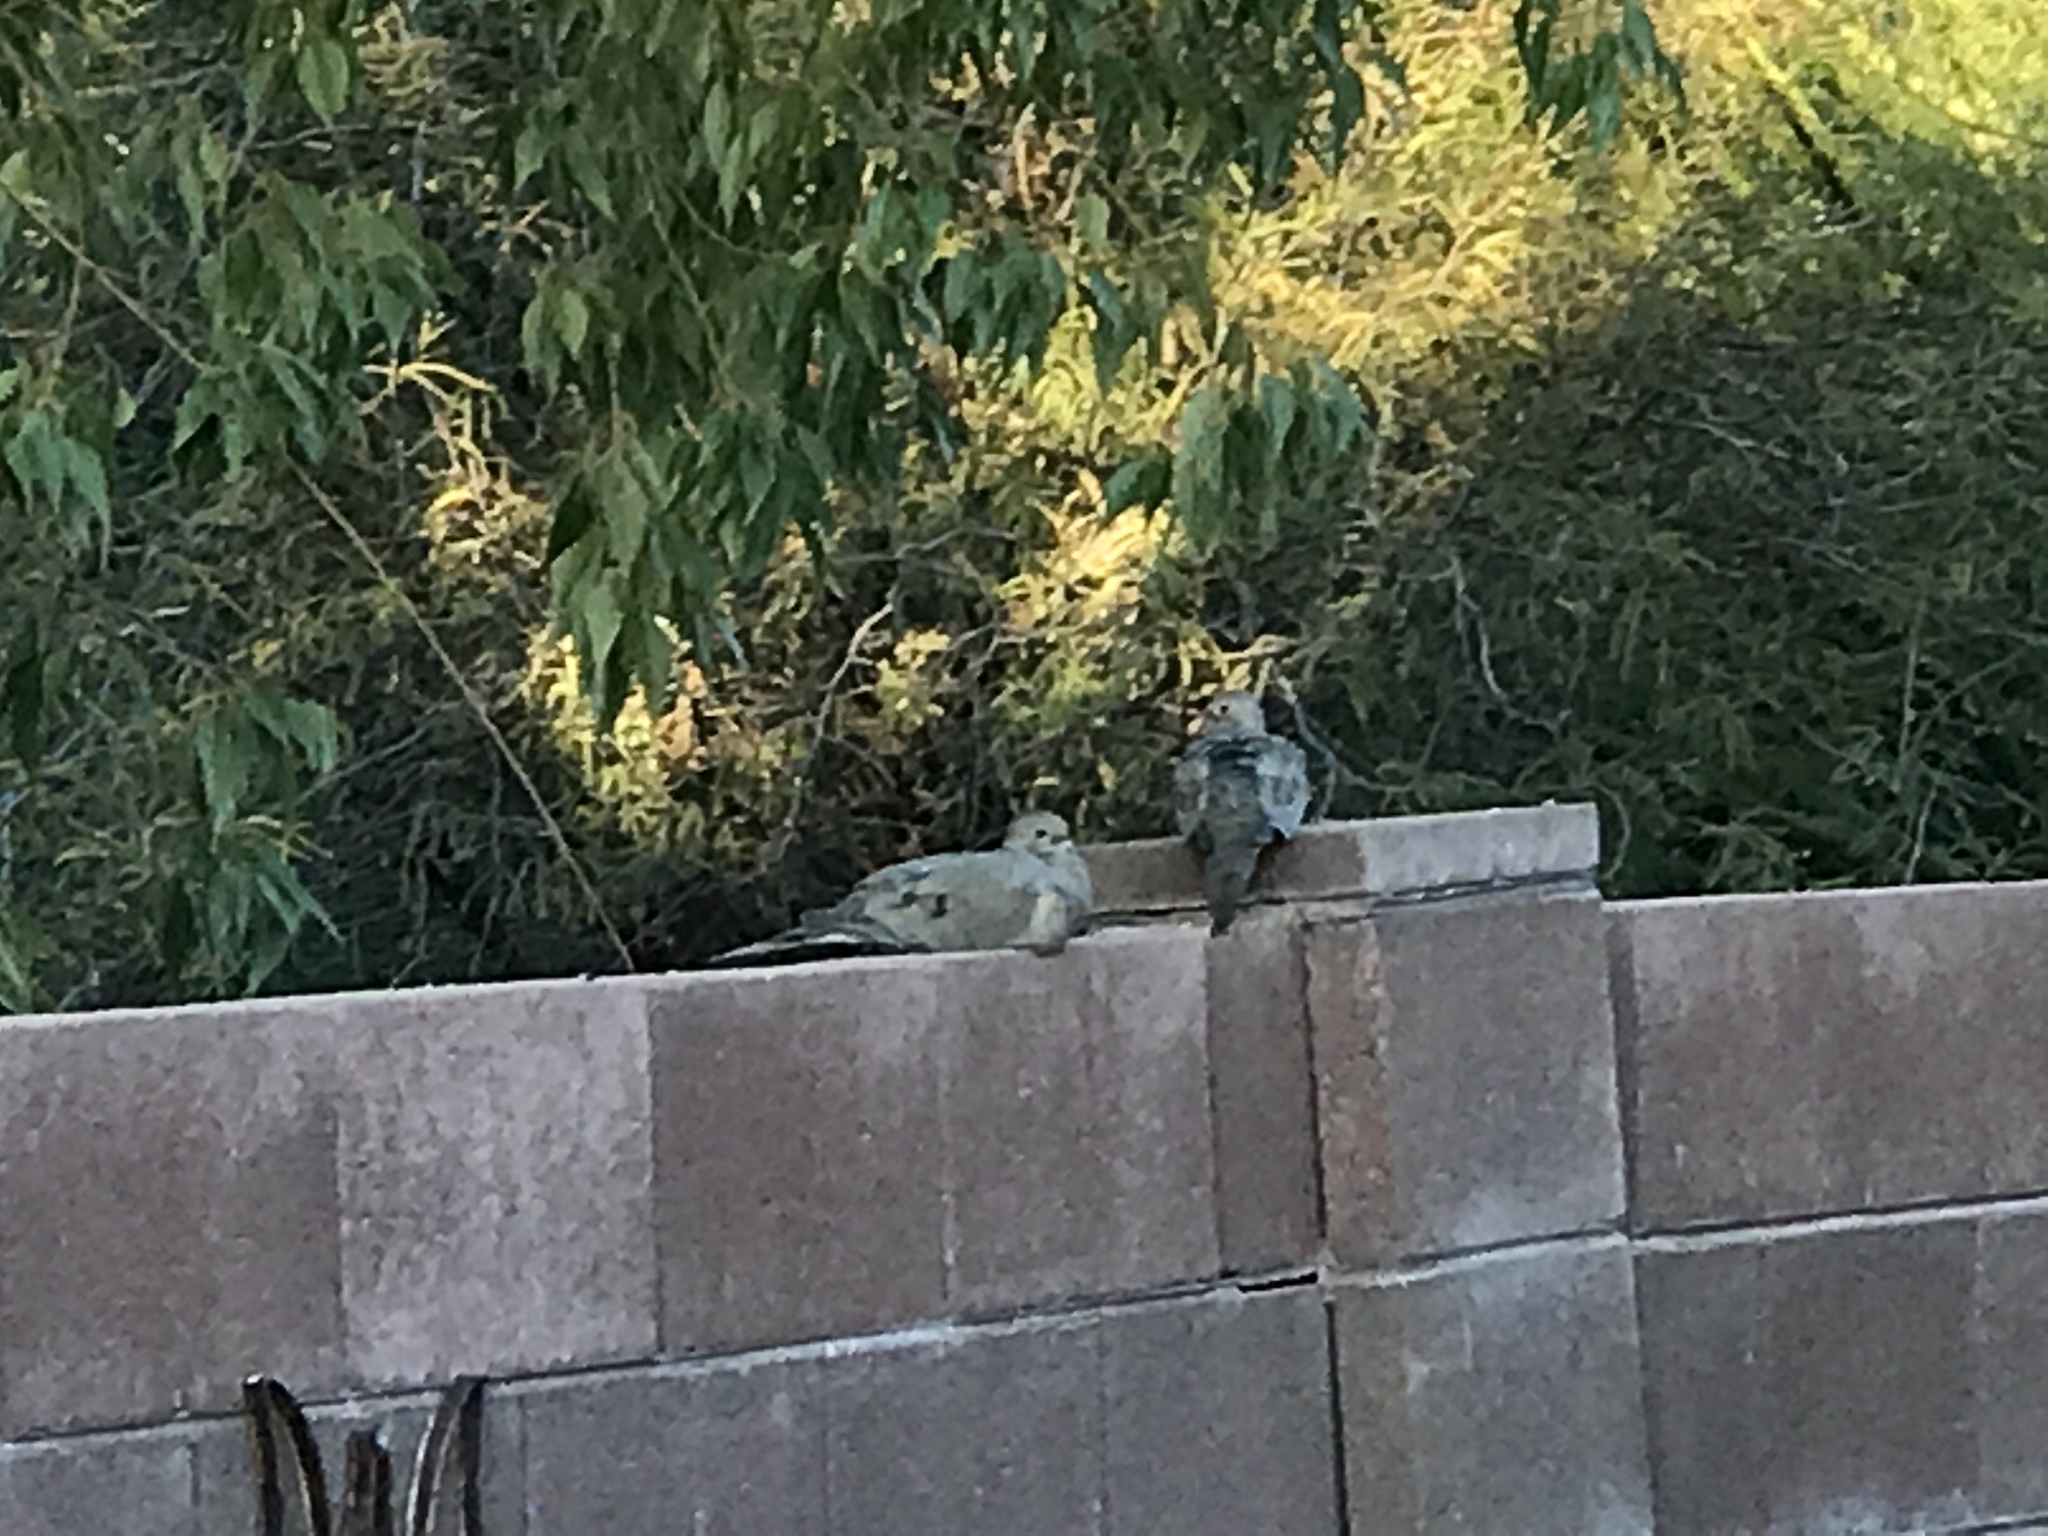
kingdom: Animalia
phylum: Chordata
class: Aves
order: Columbiformes
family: Columbidae
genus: Zenaida
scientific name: Zenaida macroura
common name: Mourning dove
